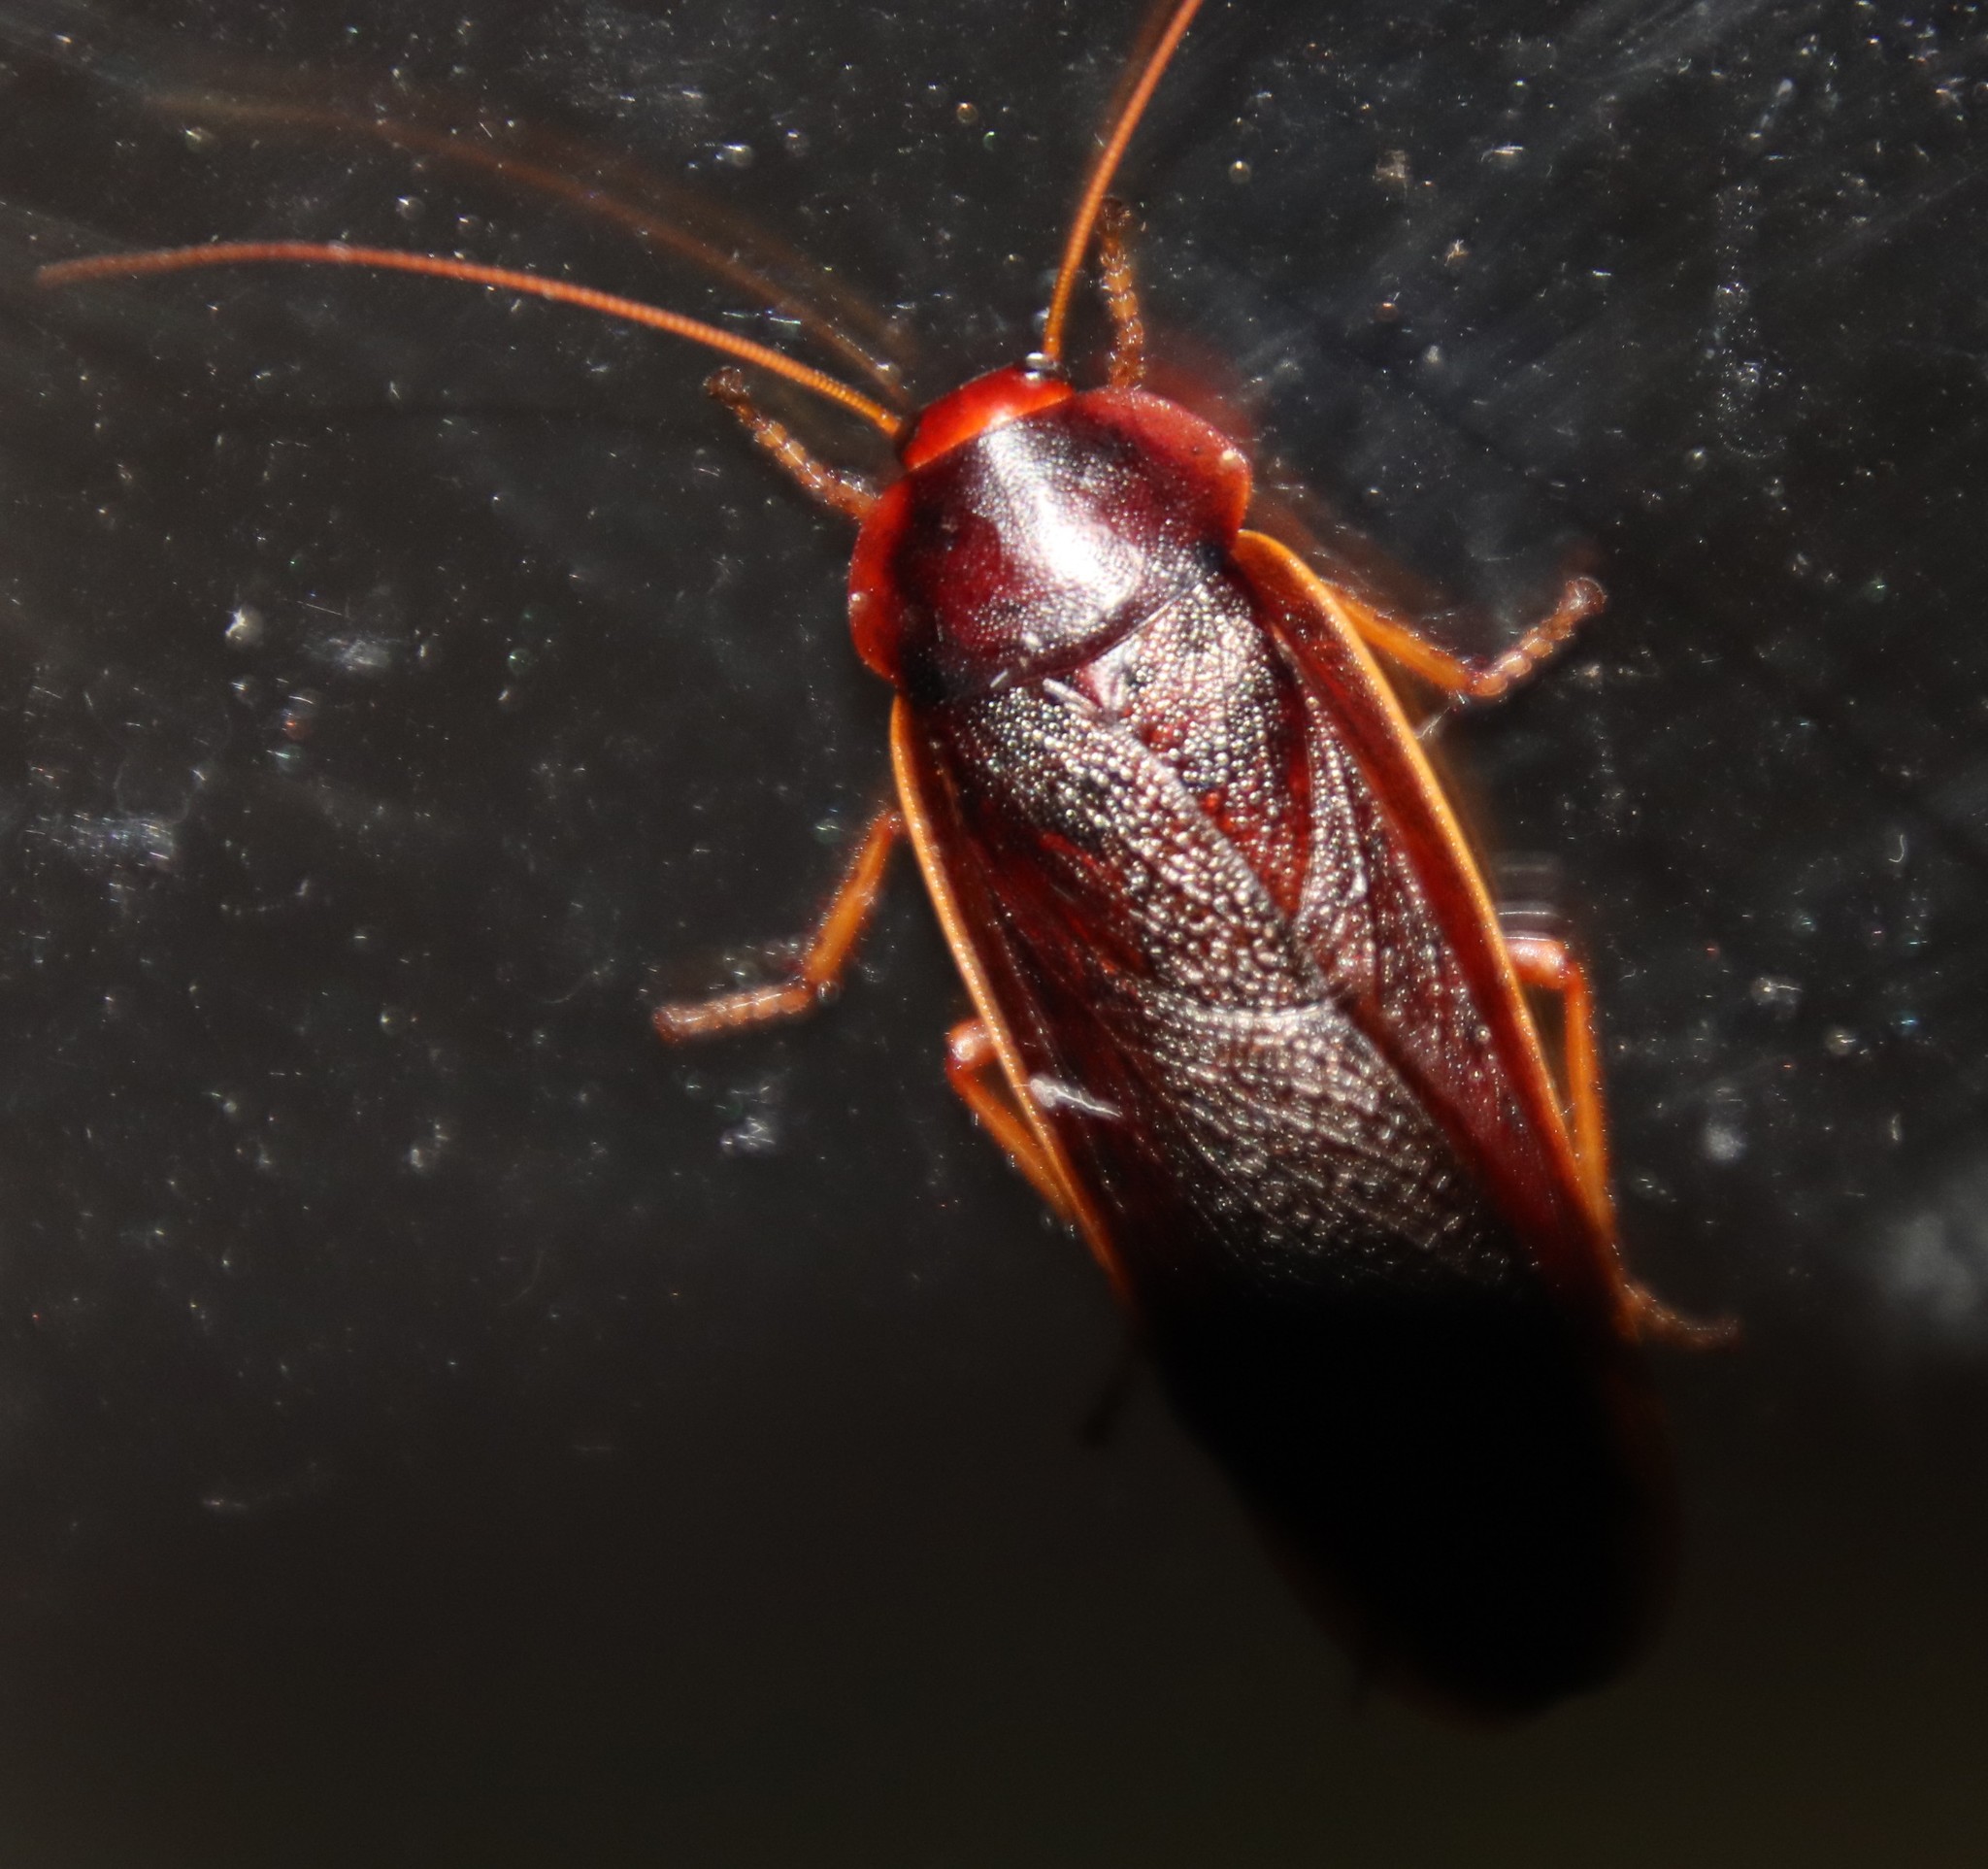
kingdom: Animalia
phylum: Arthropoda
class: Insecta
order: Blattodea
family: Blaberidae
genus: Aptera
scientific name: Aptera fusca
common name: Cape mountain cockroach
